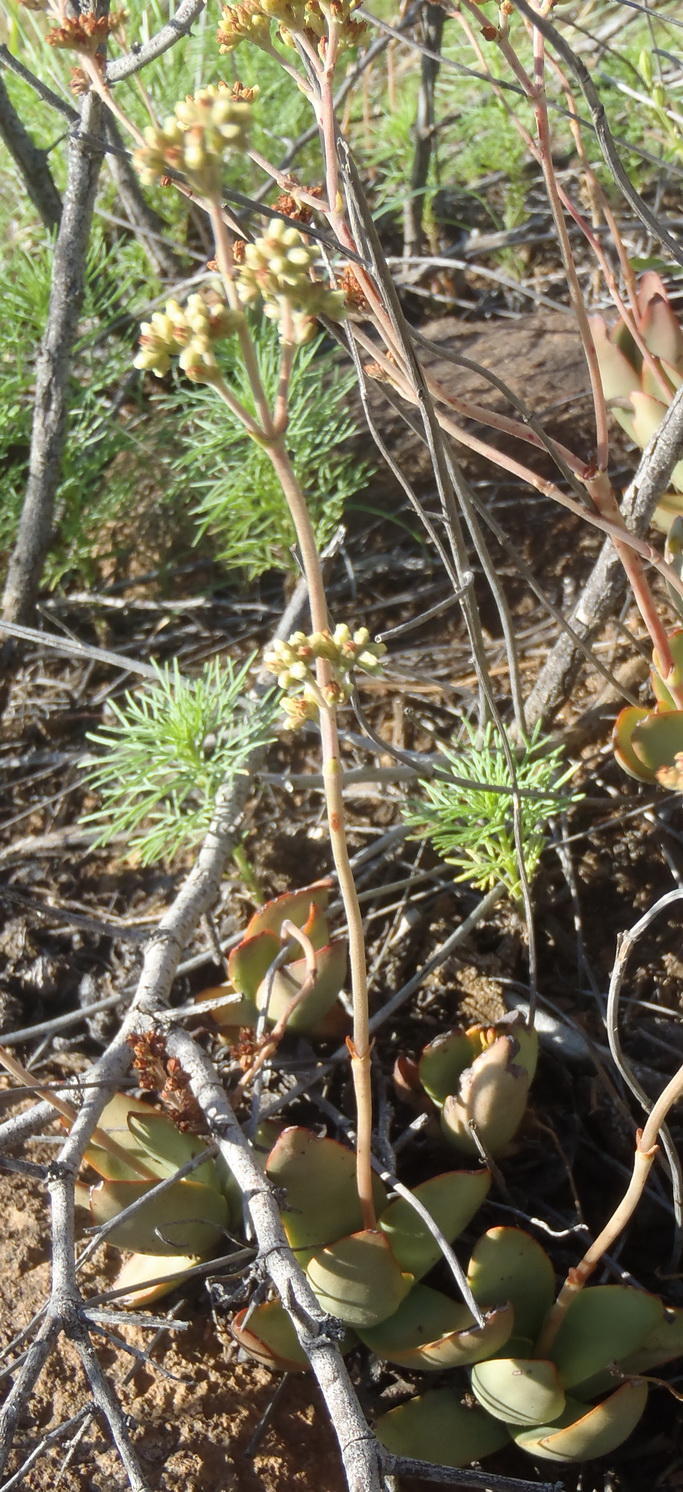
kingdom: Plantae
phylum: Tracheophyta
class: Magnoliopsida
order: Saxifragales
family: Crassulaceae
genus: Crassula
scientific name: Crassula nudicaulis
